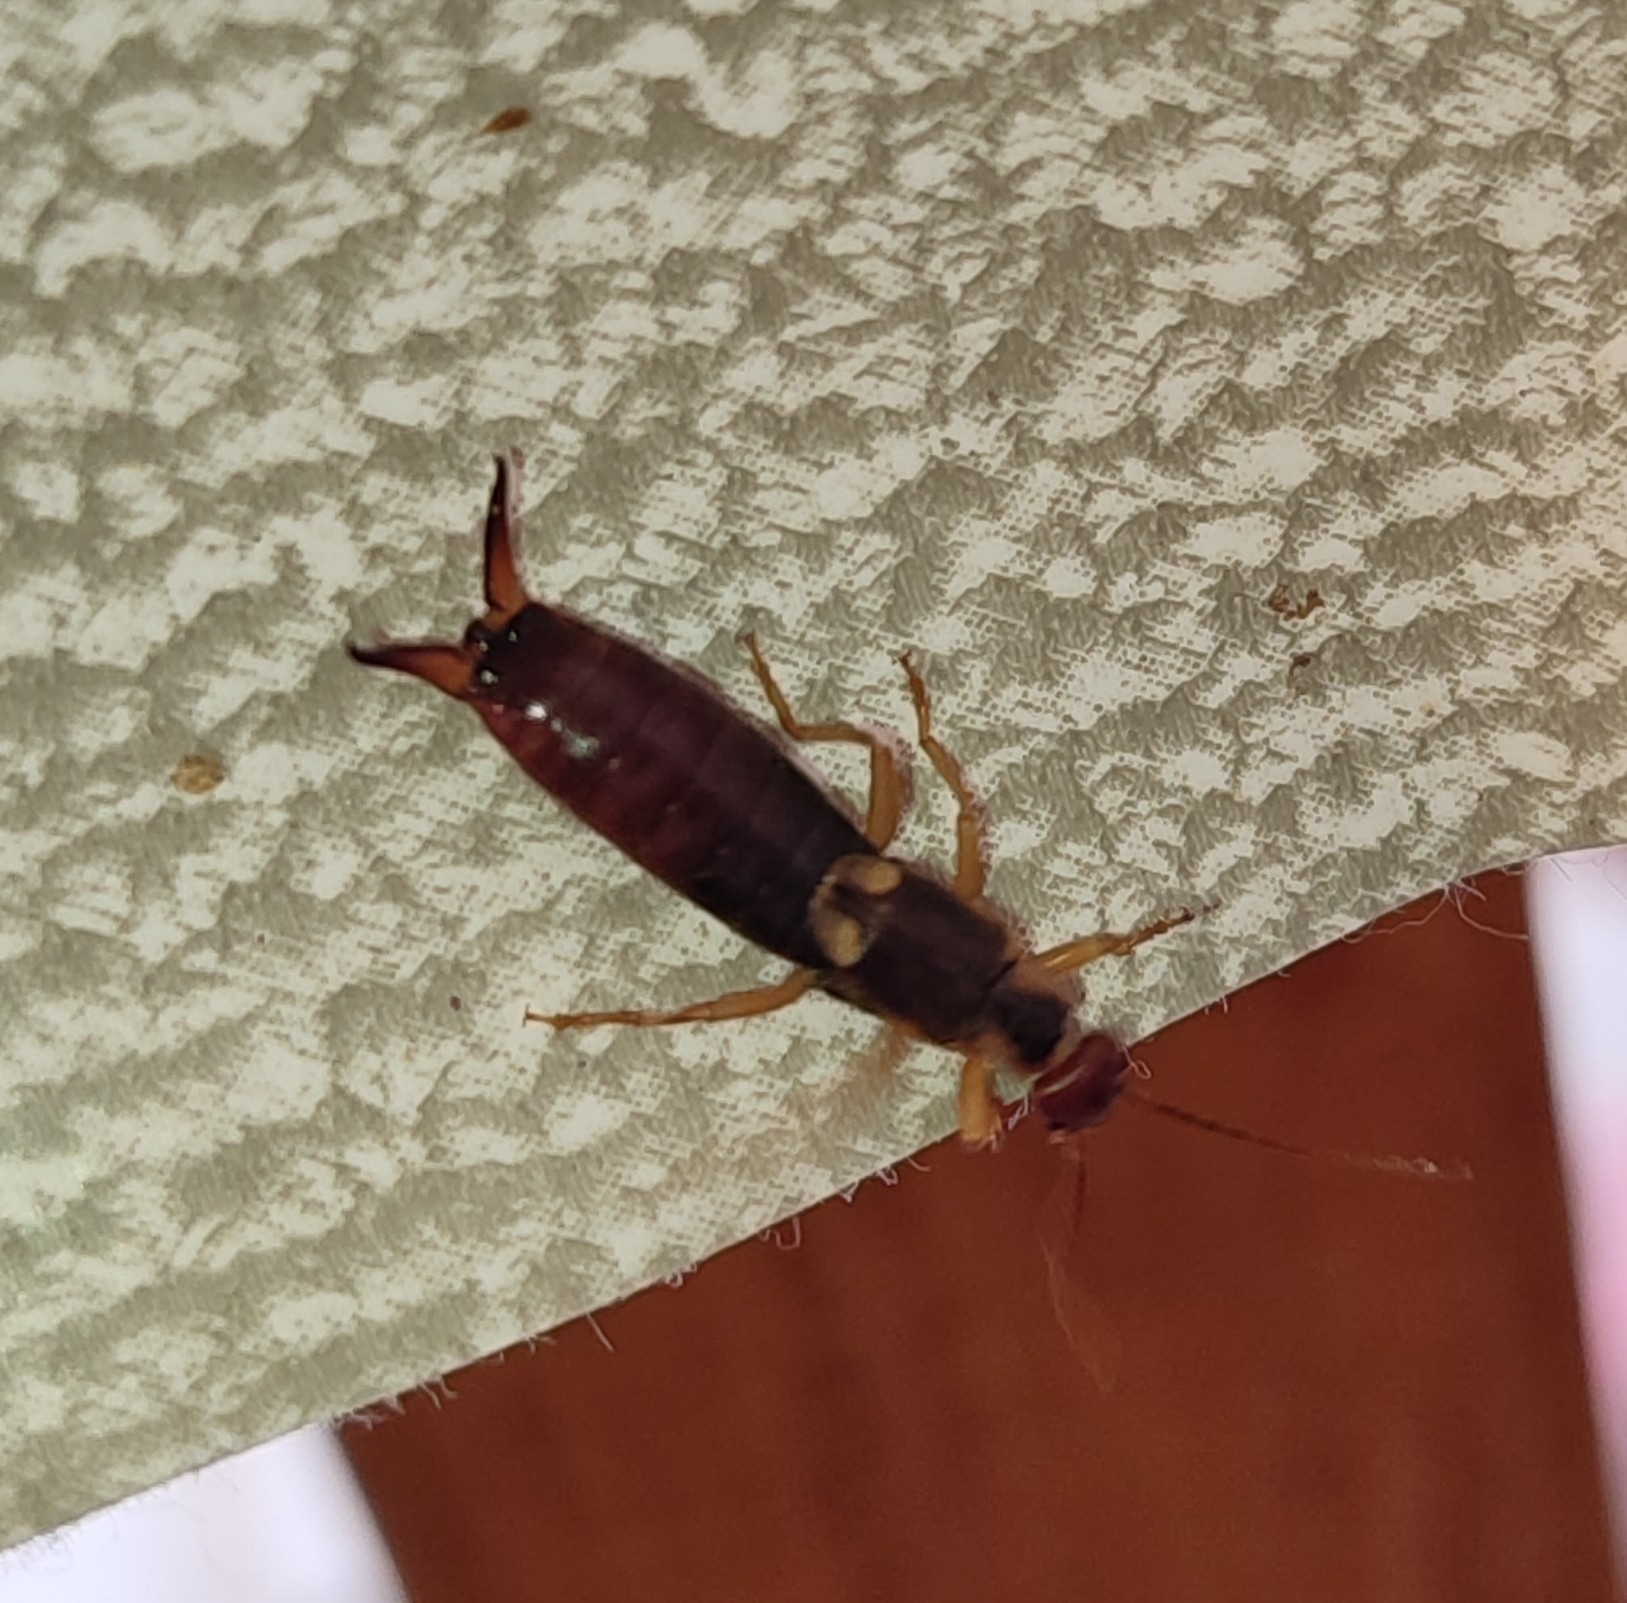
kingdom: Animalia
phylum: Arthropoda
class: Insecta
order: Dermaptera
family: Forficulidae
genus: Forficula
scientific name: Forficula
